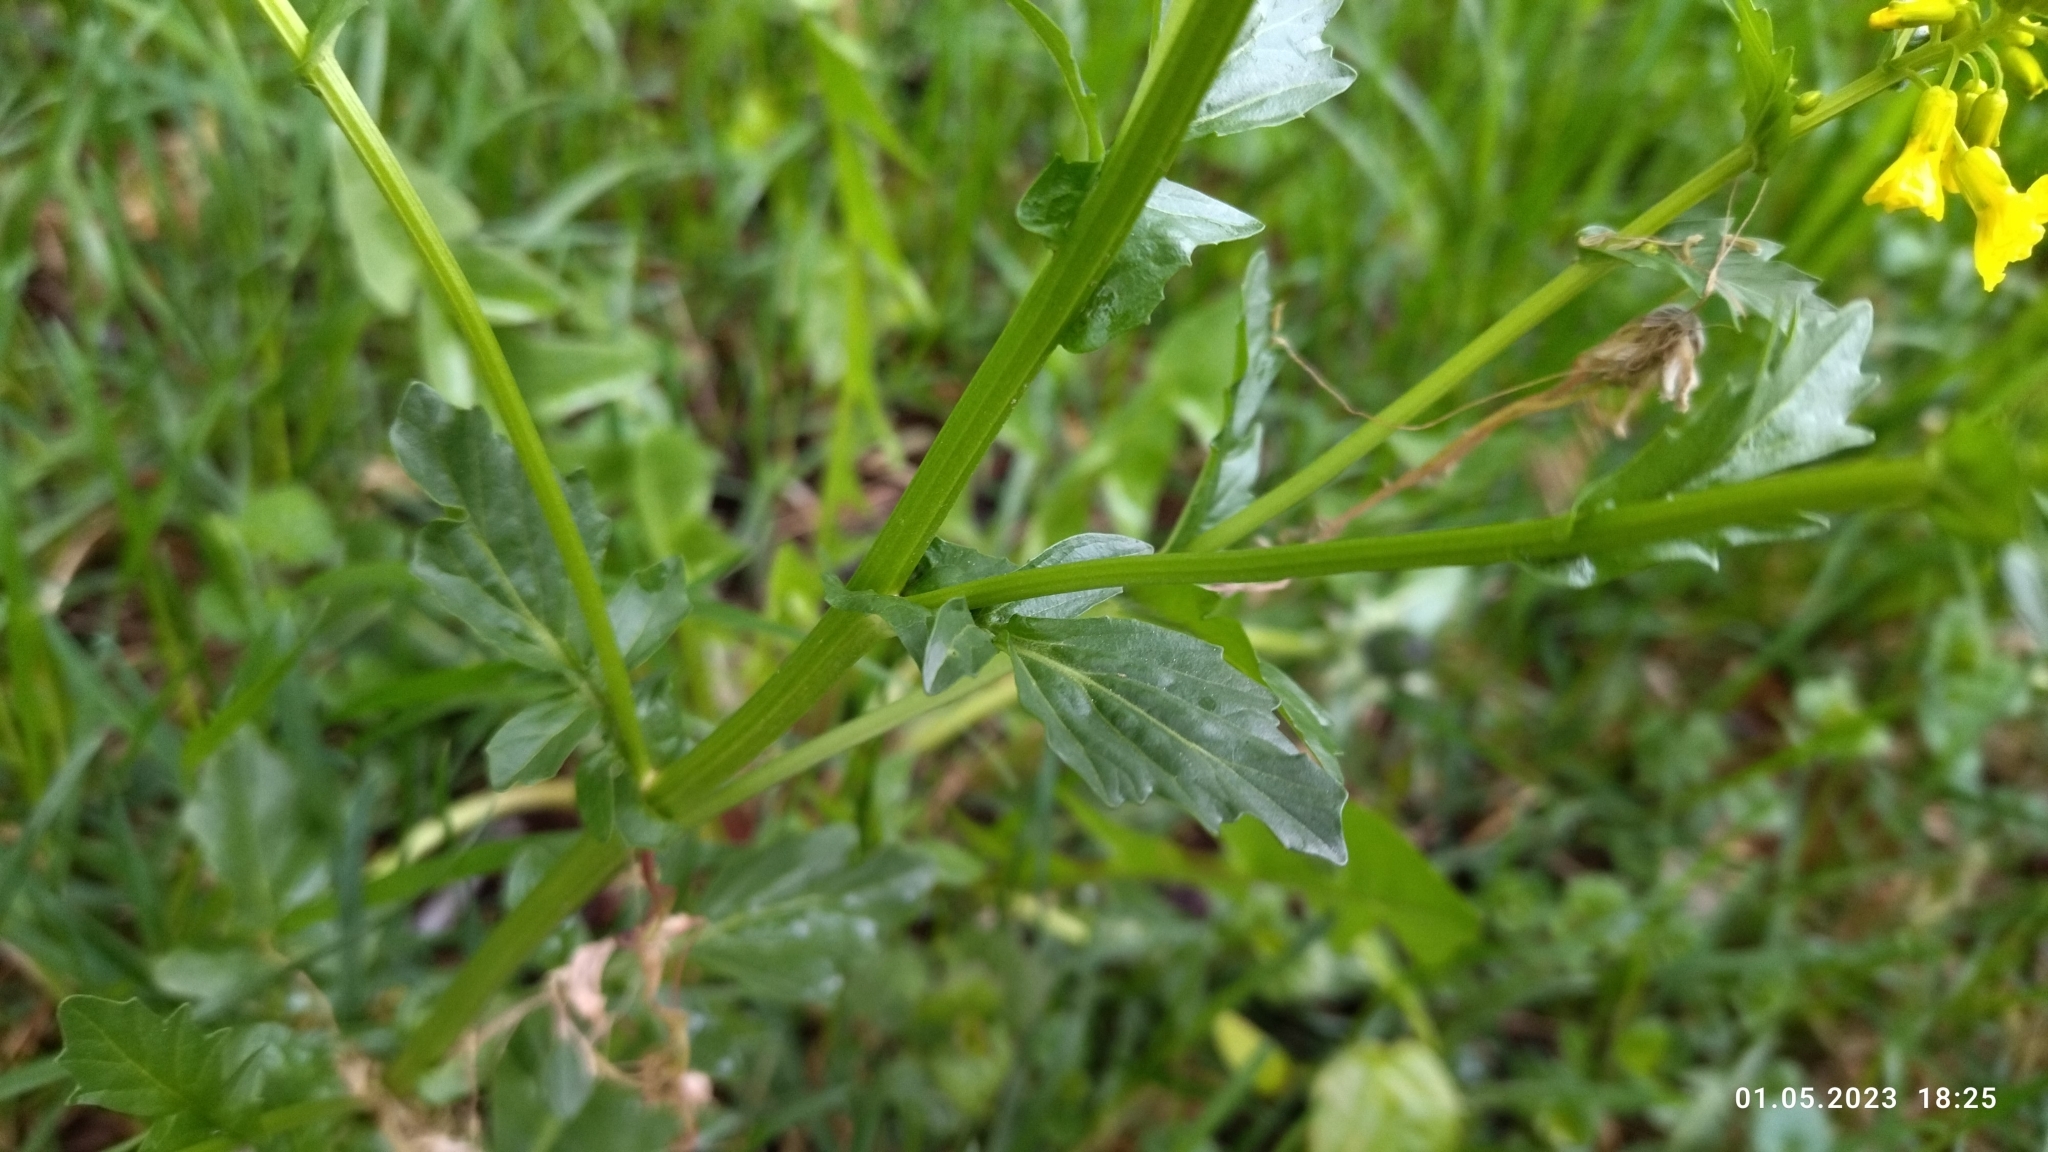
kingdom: Plantae
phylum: Tracheophyta
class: Magnoliopsida
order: Brassicales
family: Brassicaceae
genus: Barbarea
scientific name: Barbarea vulgaris
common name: Cressy-greens
